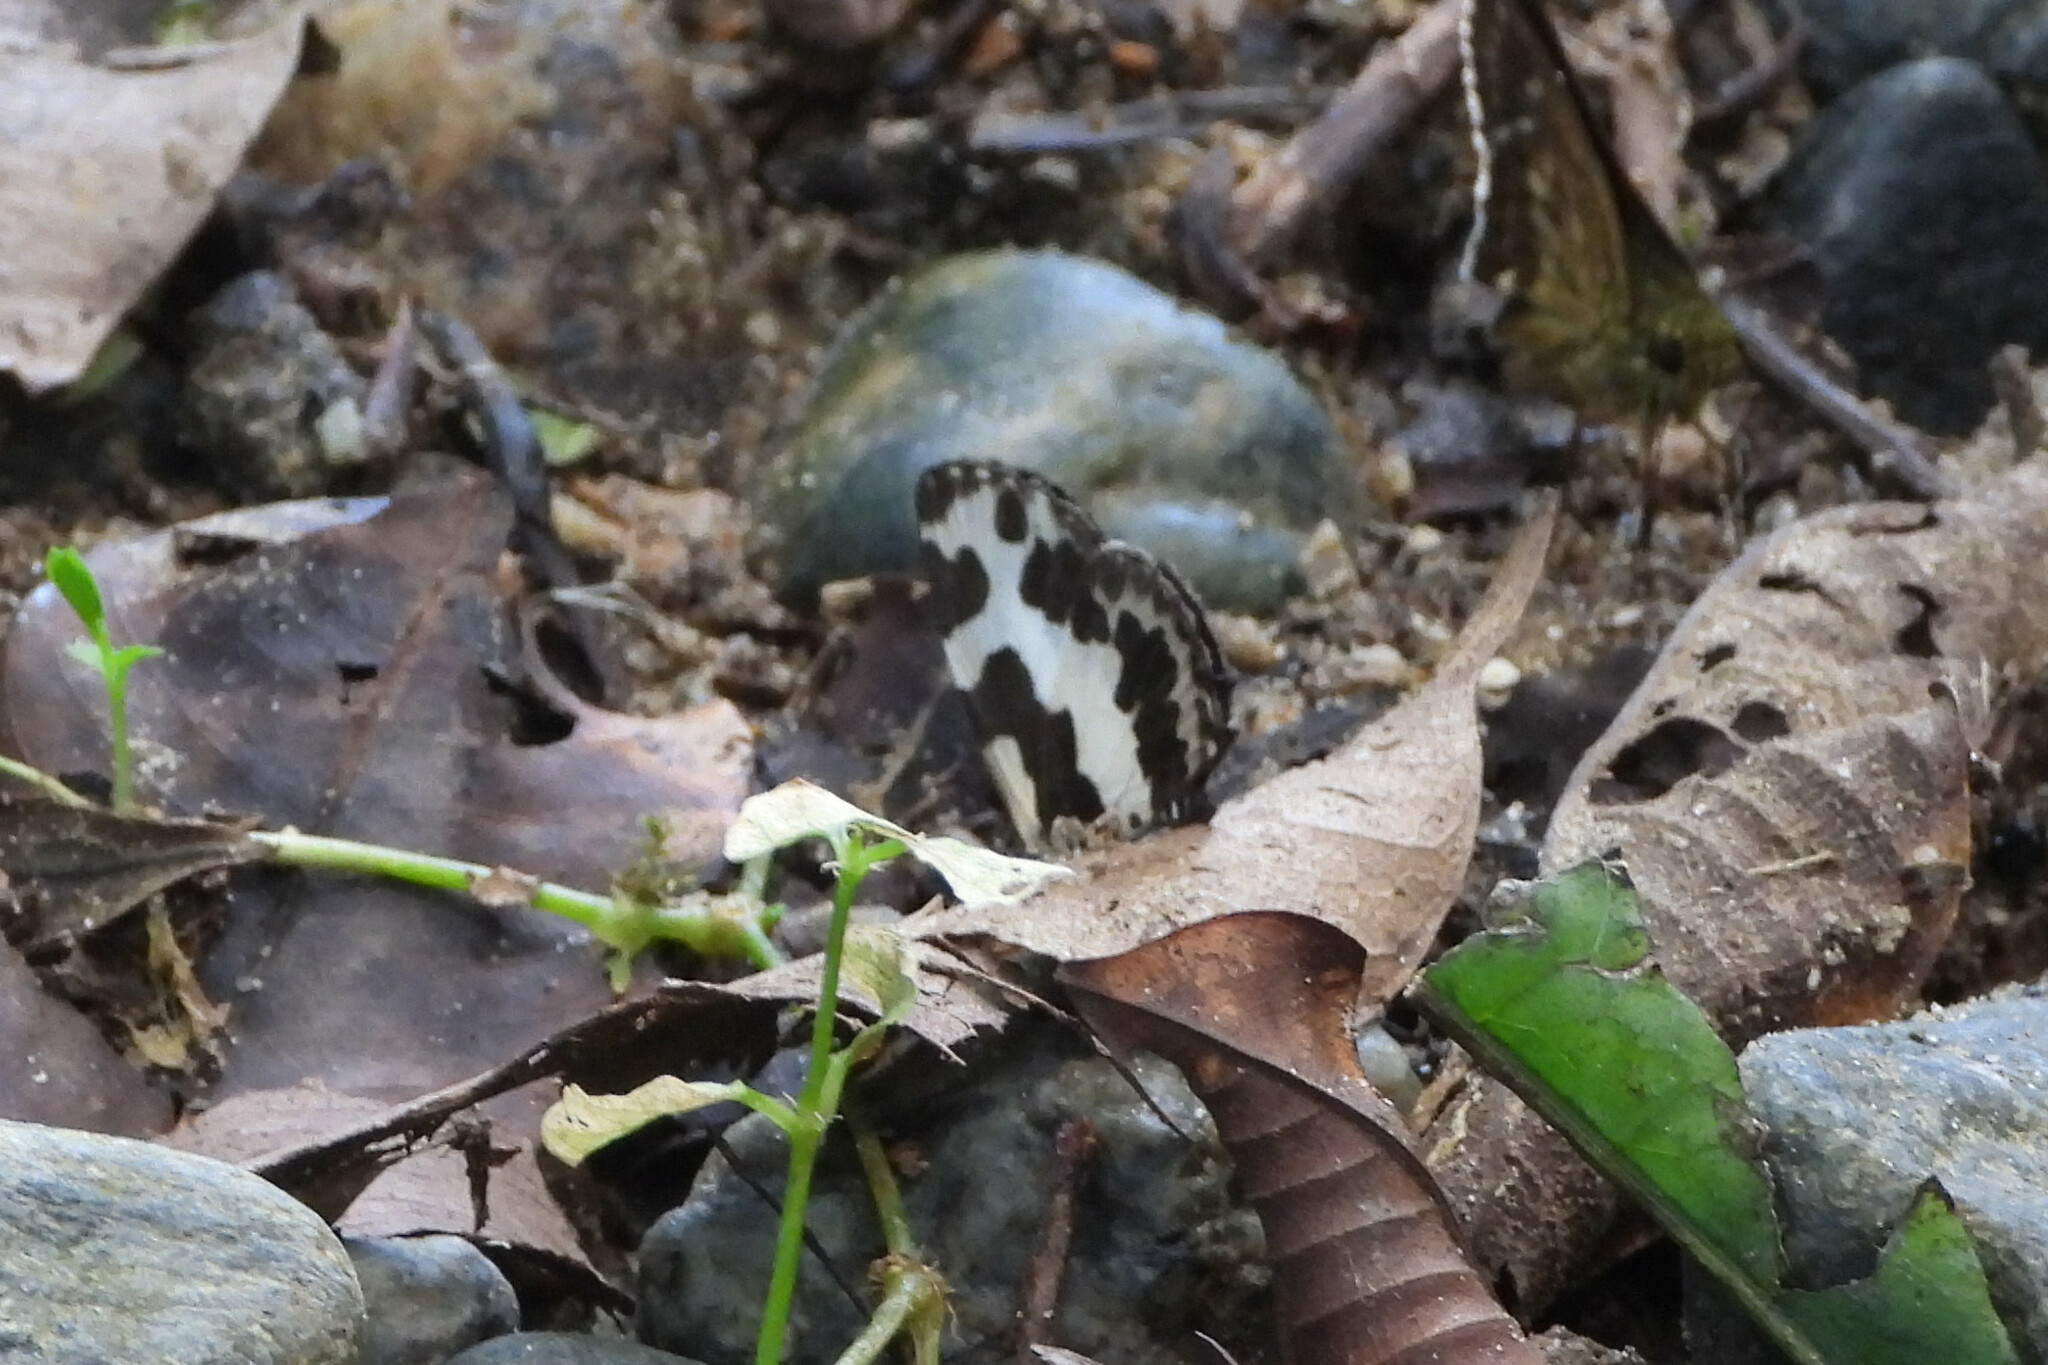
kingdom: Animalia
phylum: Arthropoda
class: Insecta
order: Lepidoptera
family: Lycaenidae
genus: Caleta
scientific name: Caleta elna
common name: Elbowed pierrot
